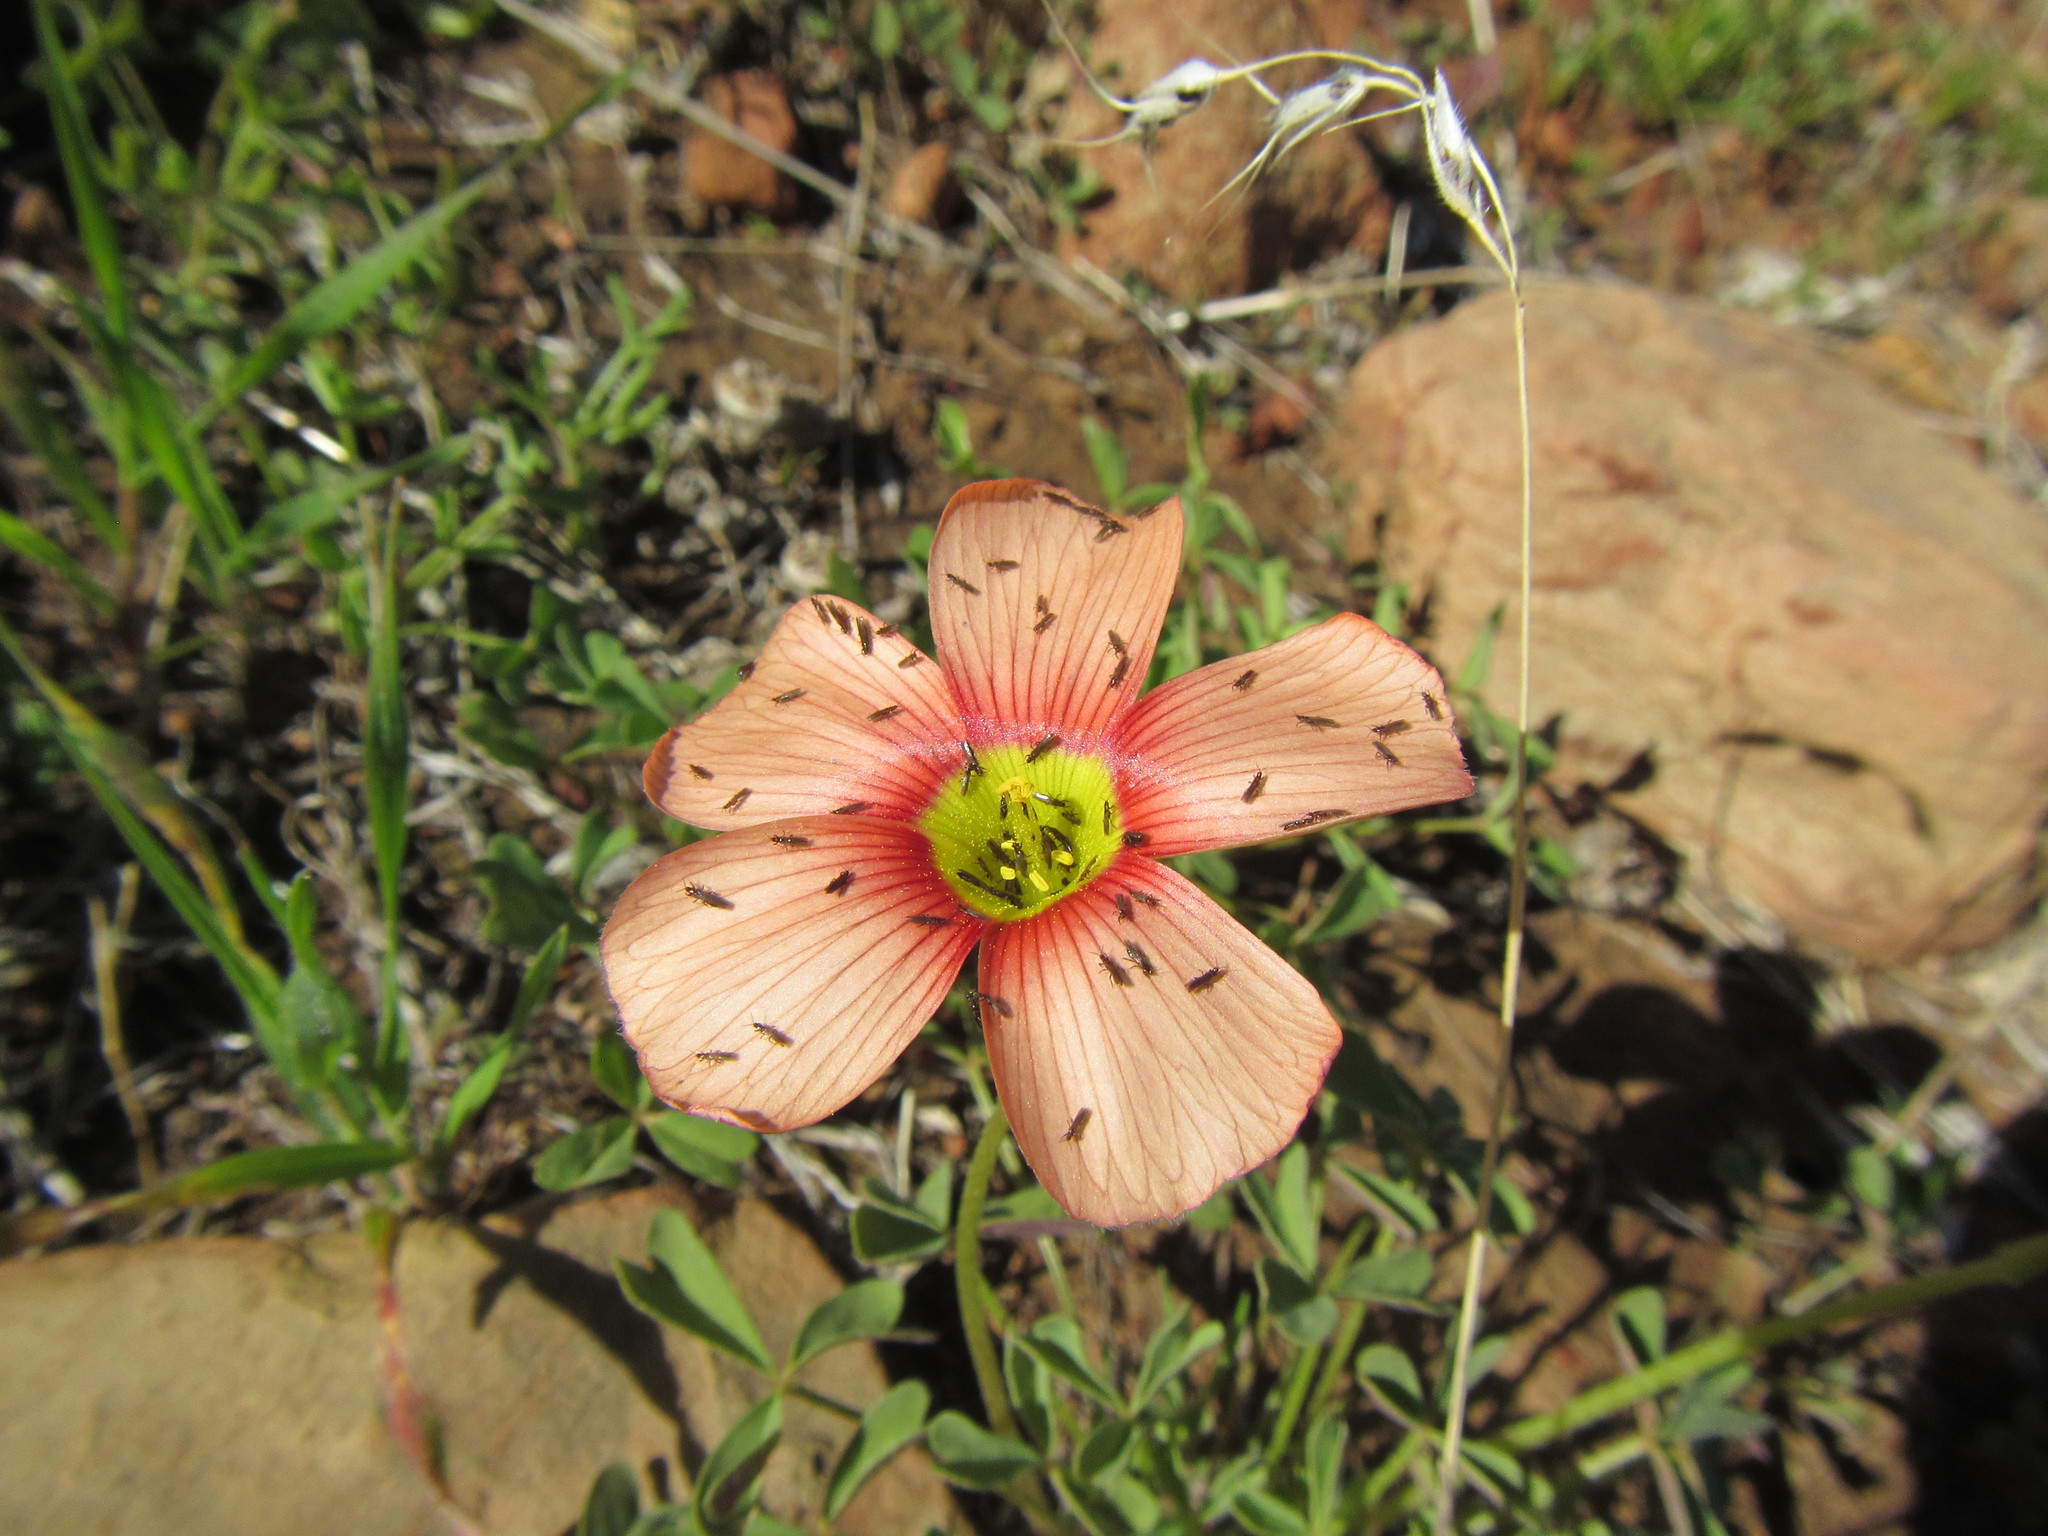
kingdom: Plantae
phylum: Tracheophyta
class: Magnoliopsida
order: Oxalidales
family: Oxalidaceae
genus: Oxalis
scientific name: Oxalis obtusa
